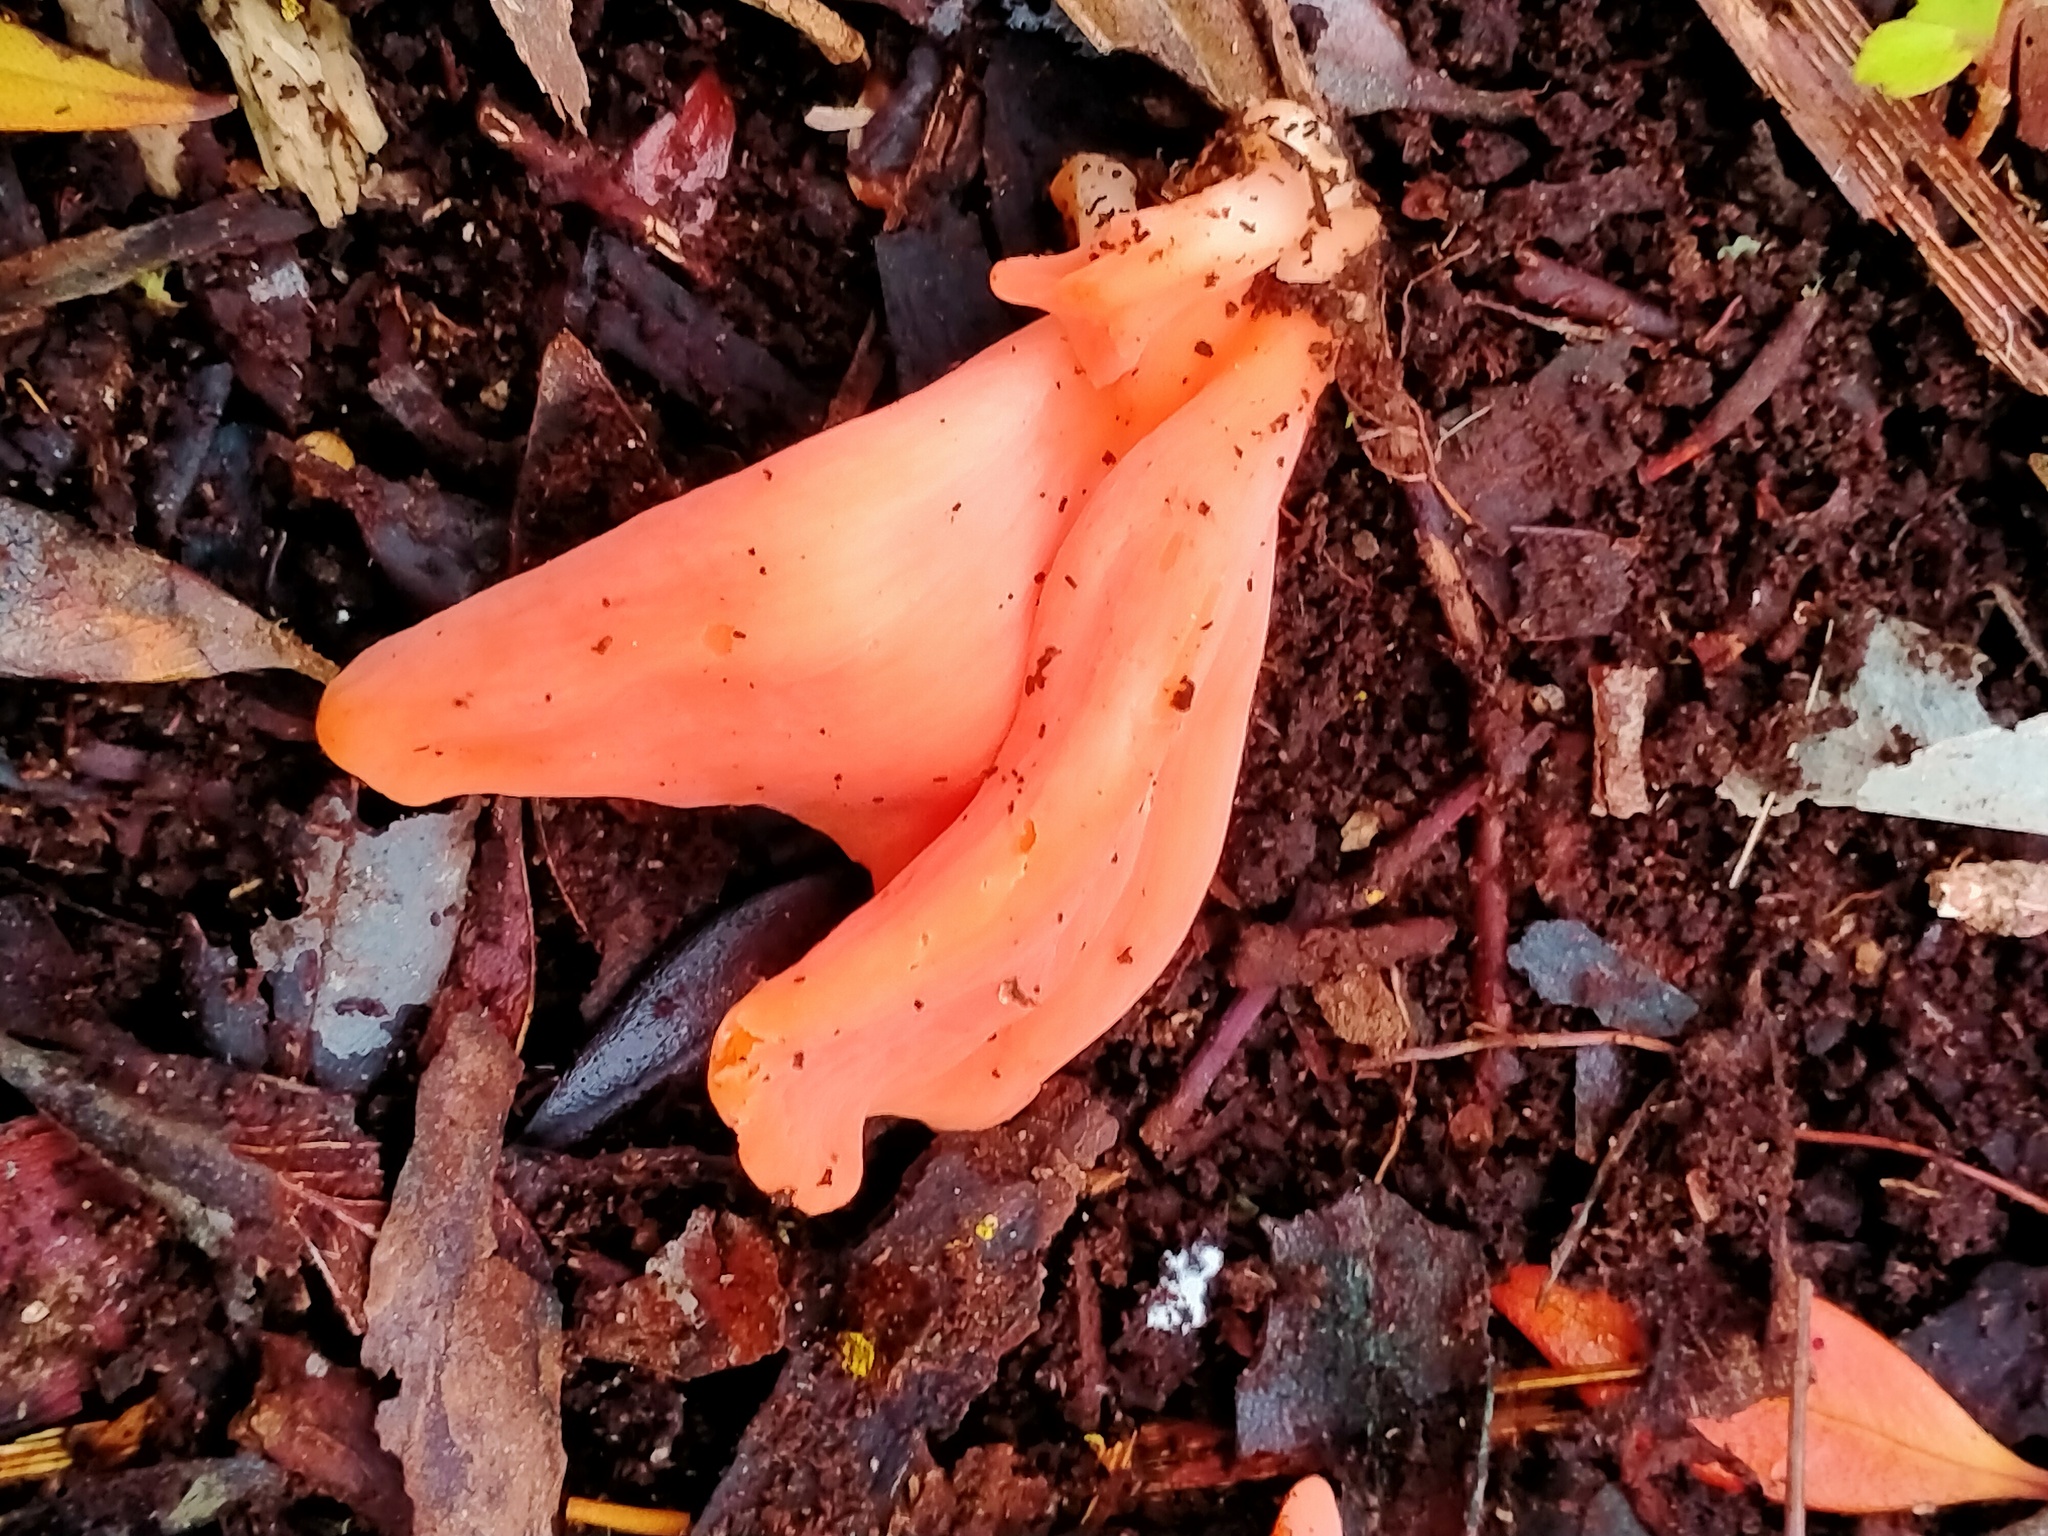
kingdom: Fungi
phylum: Basidiomycota
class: Agaricomycetes
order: Agaricales
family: Clavariaceae
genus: Clavulinopsis
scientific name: Clavulinopsis sulcata
